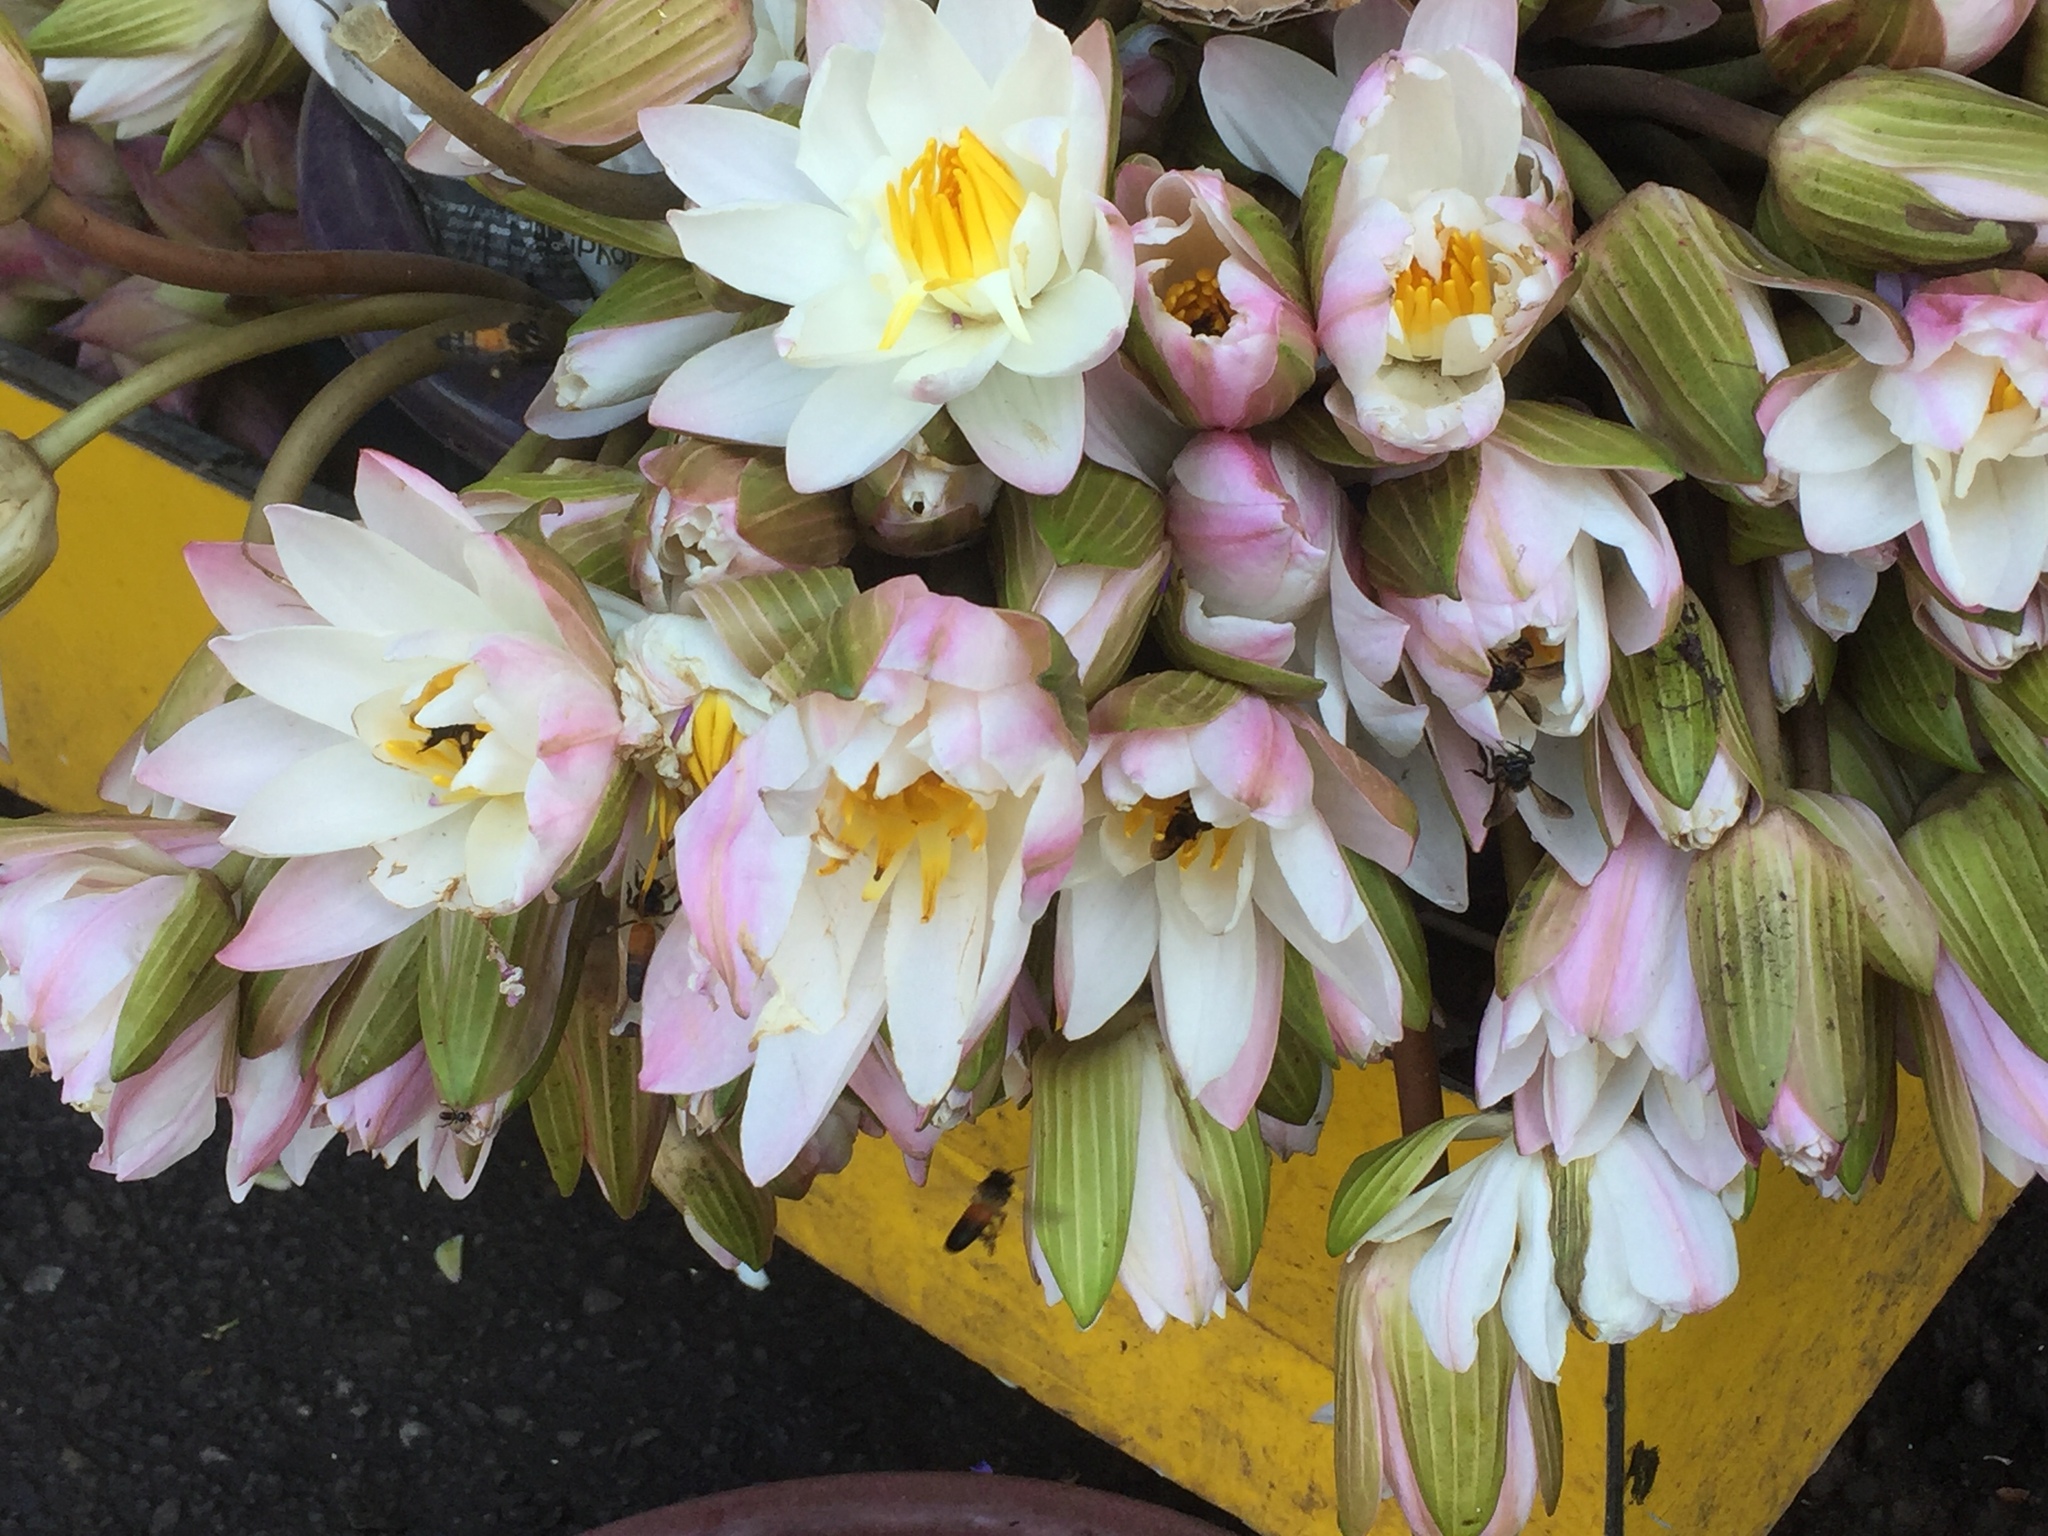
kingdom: Animalia
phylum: Arthropoda
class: Insecta
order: Hymenoptera
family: Apidae
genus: Apis
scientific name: Apis dorsata
